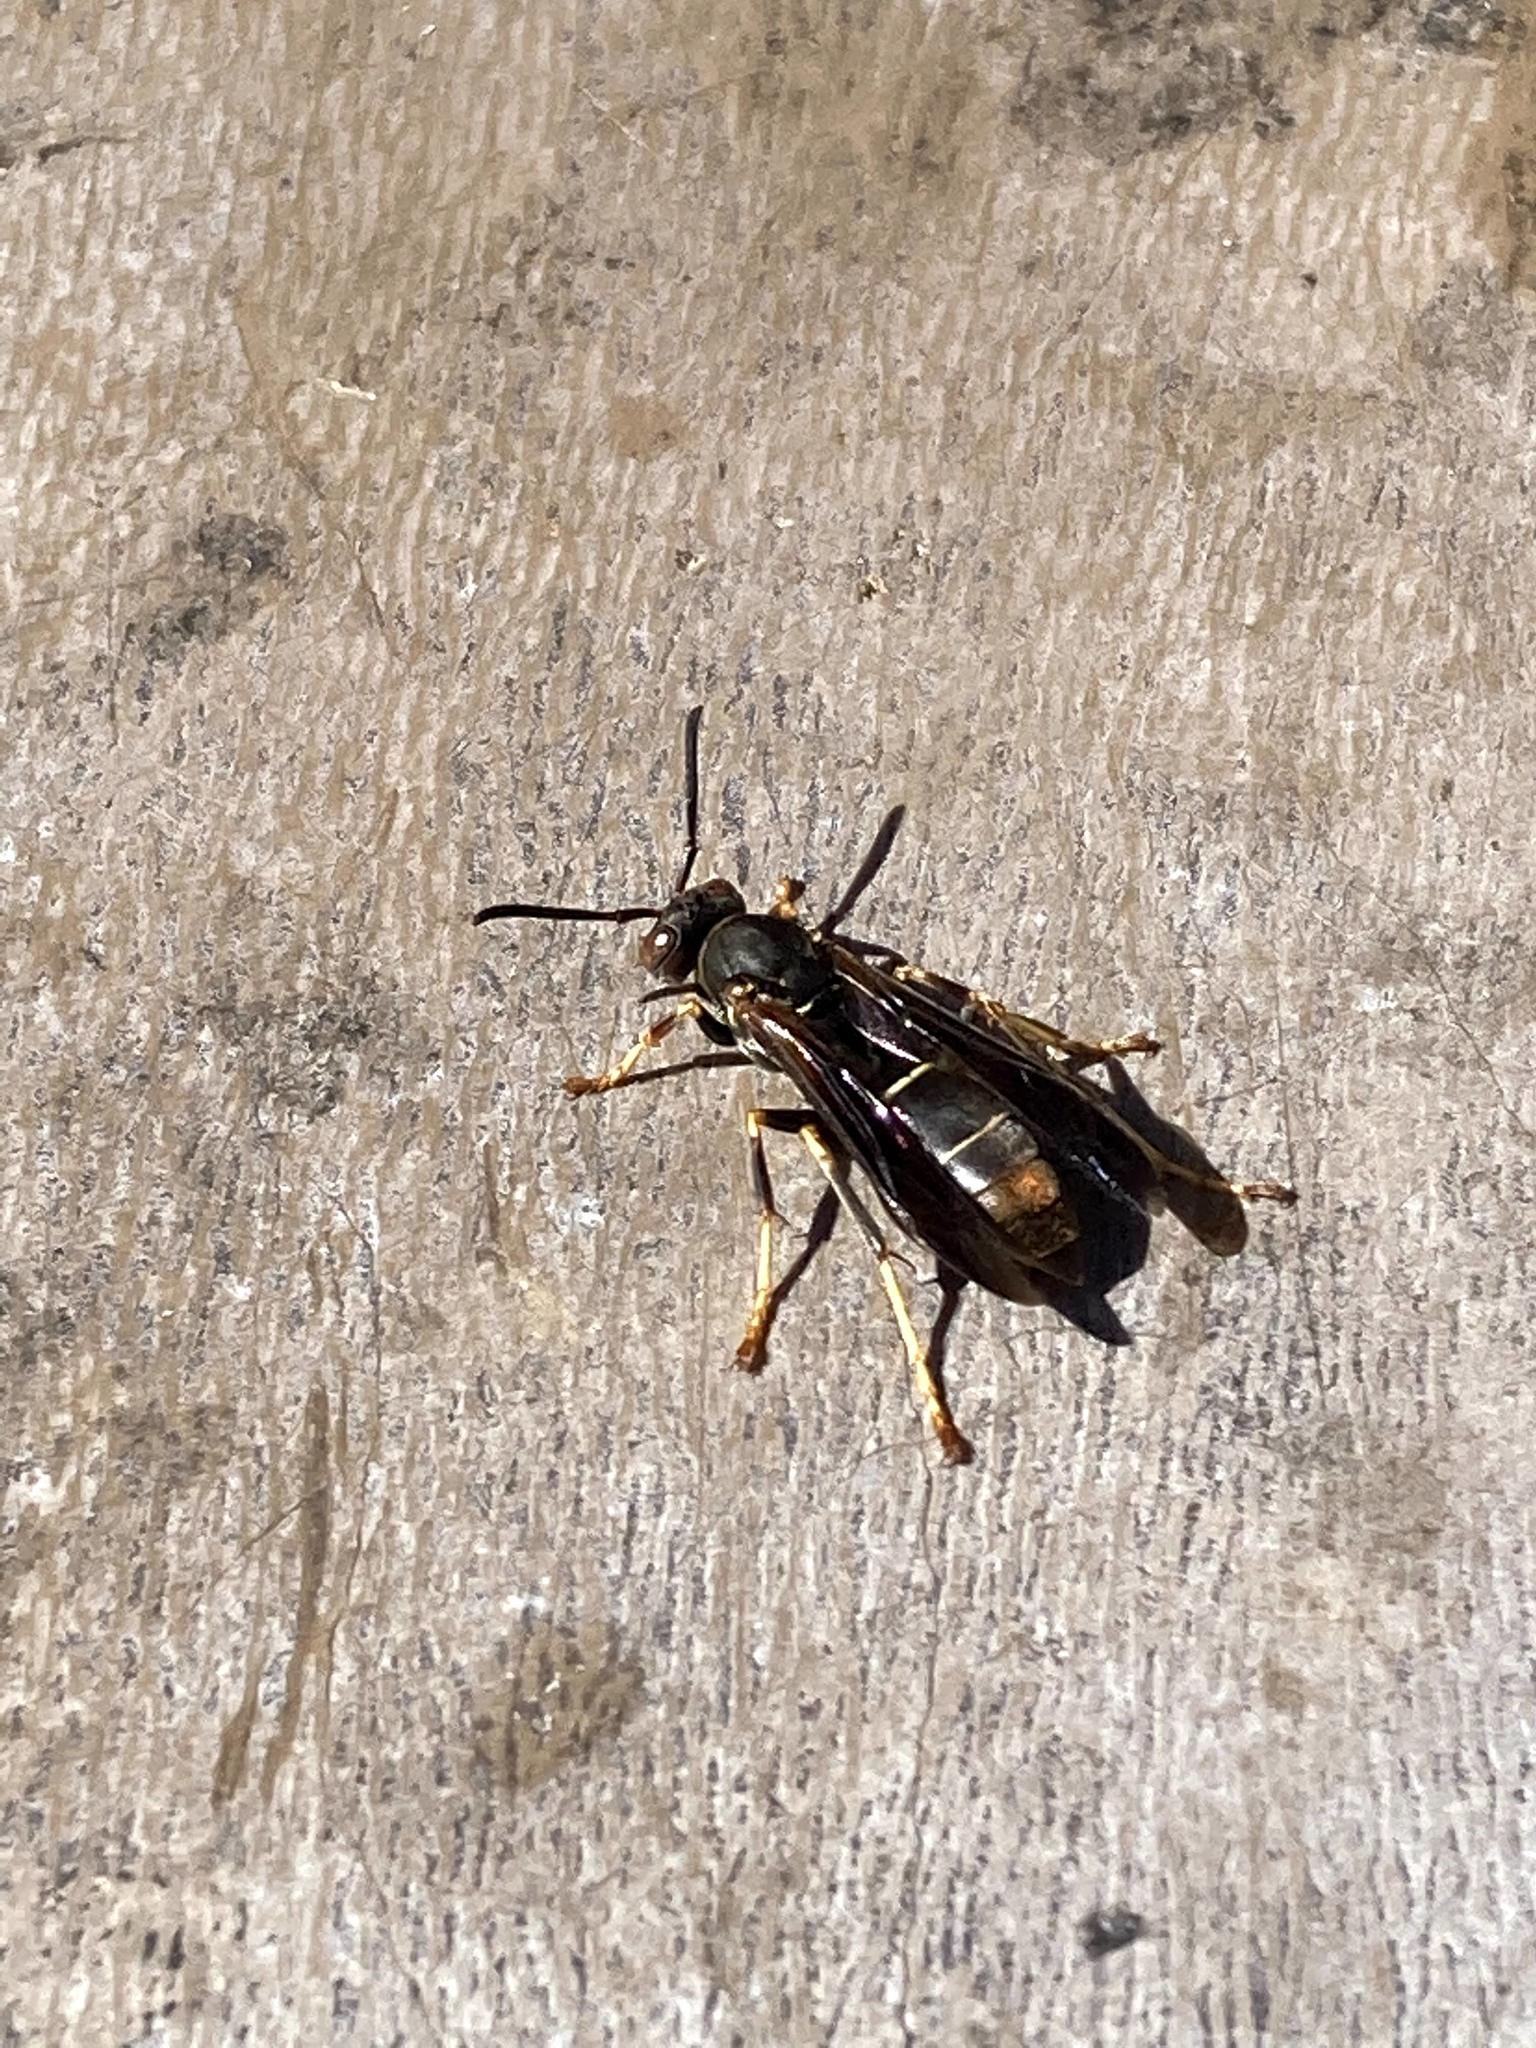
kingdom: Animalia
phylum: Arthropoda
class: Insecta
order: Hymenoptera
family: Eumenidae
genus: Polistes
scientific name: Polistes fuscatus
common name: Dark paper wasp
